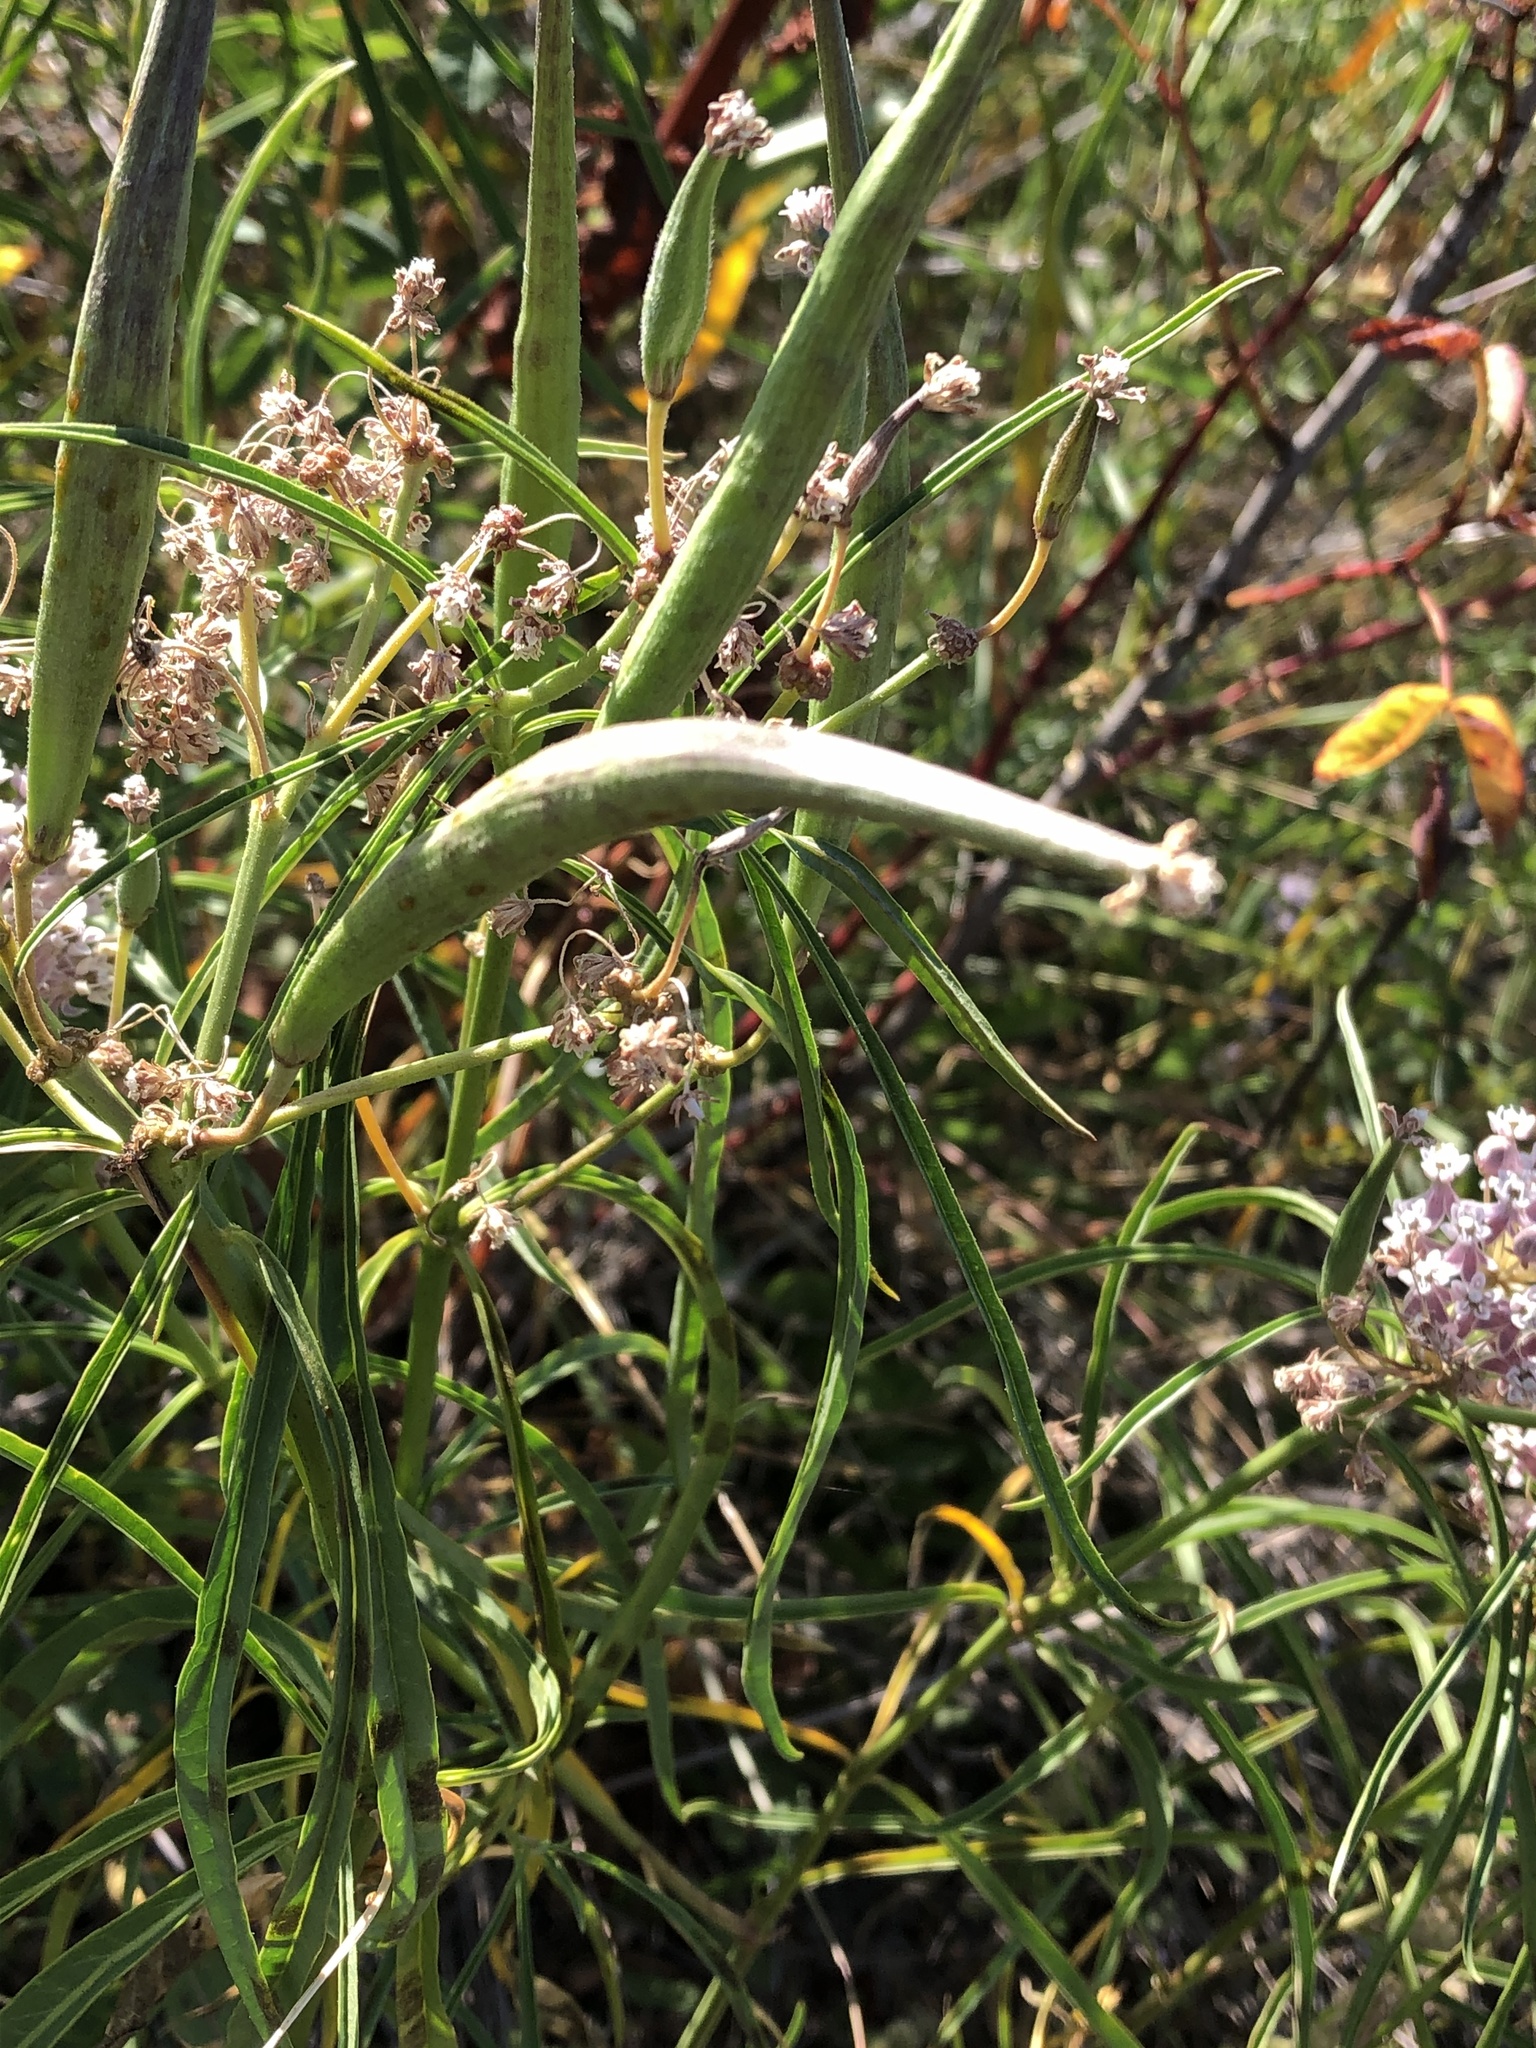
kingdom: Plantae
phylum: Tracheophyta
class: Magnoliopsida
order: Gentianales
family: Apocynaceae
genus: Asclepias
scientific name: Asclepias fascicularis
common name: Mexican milkweed
